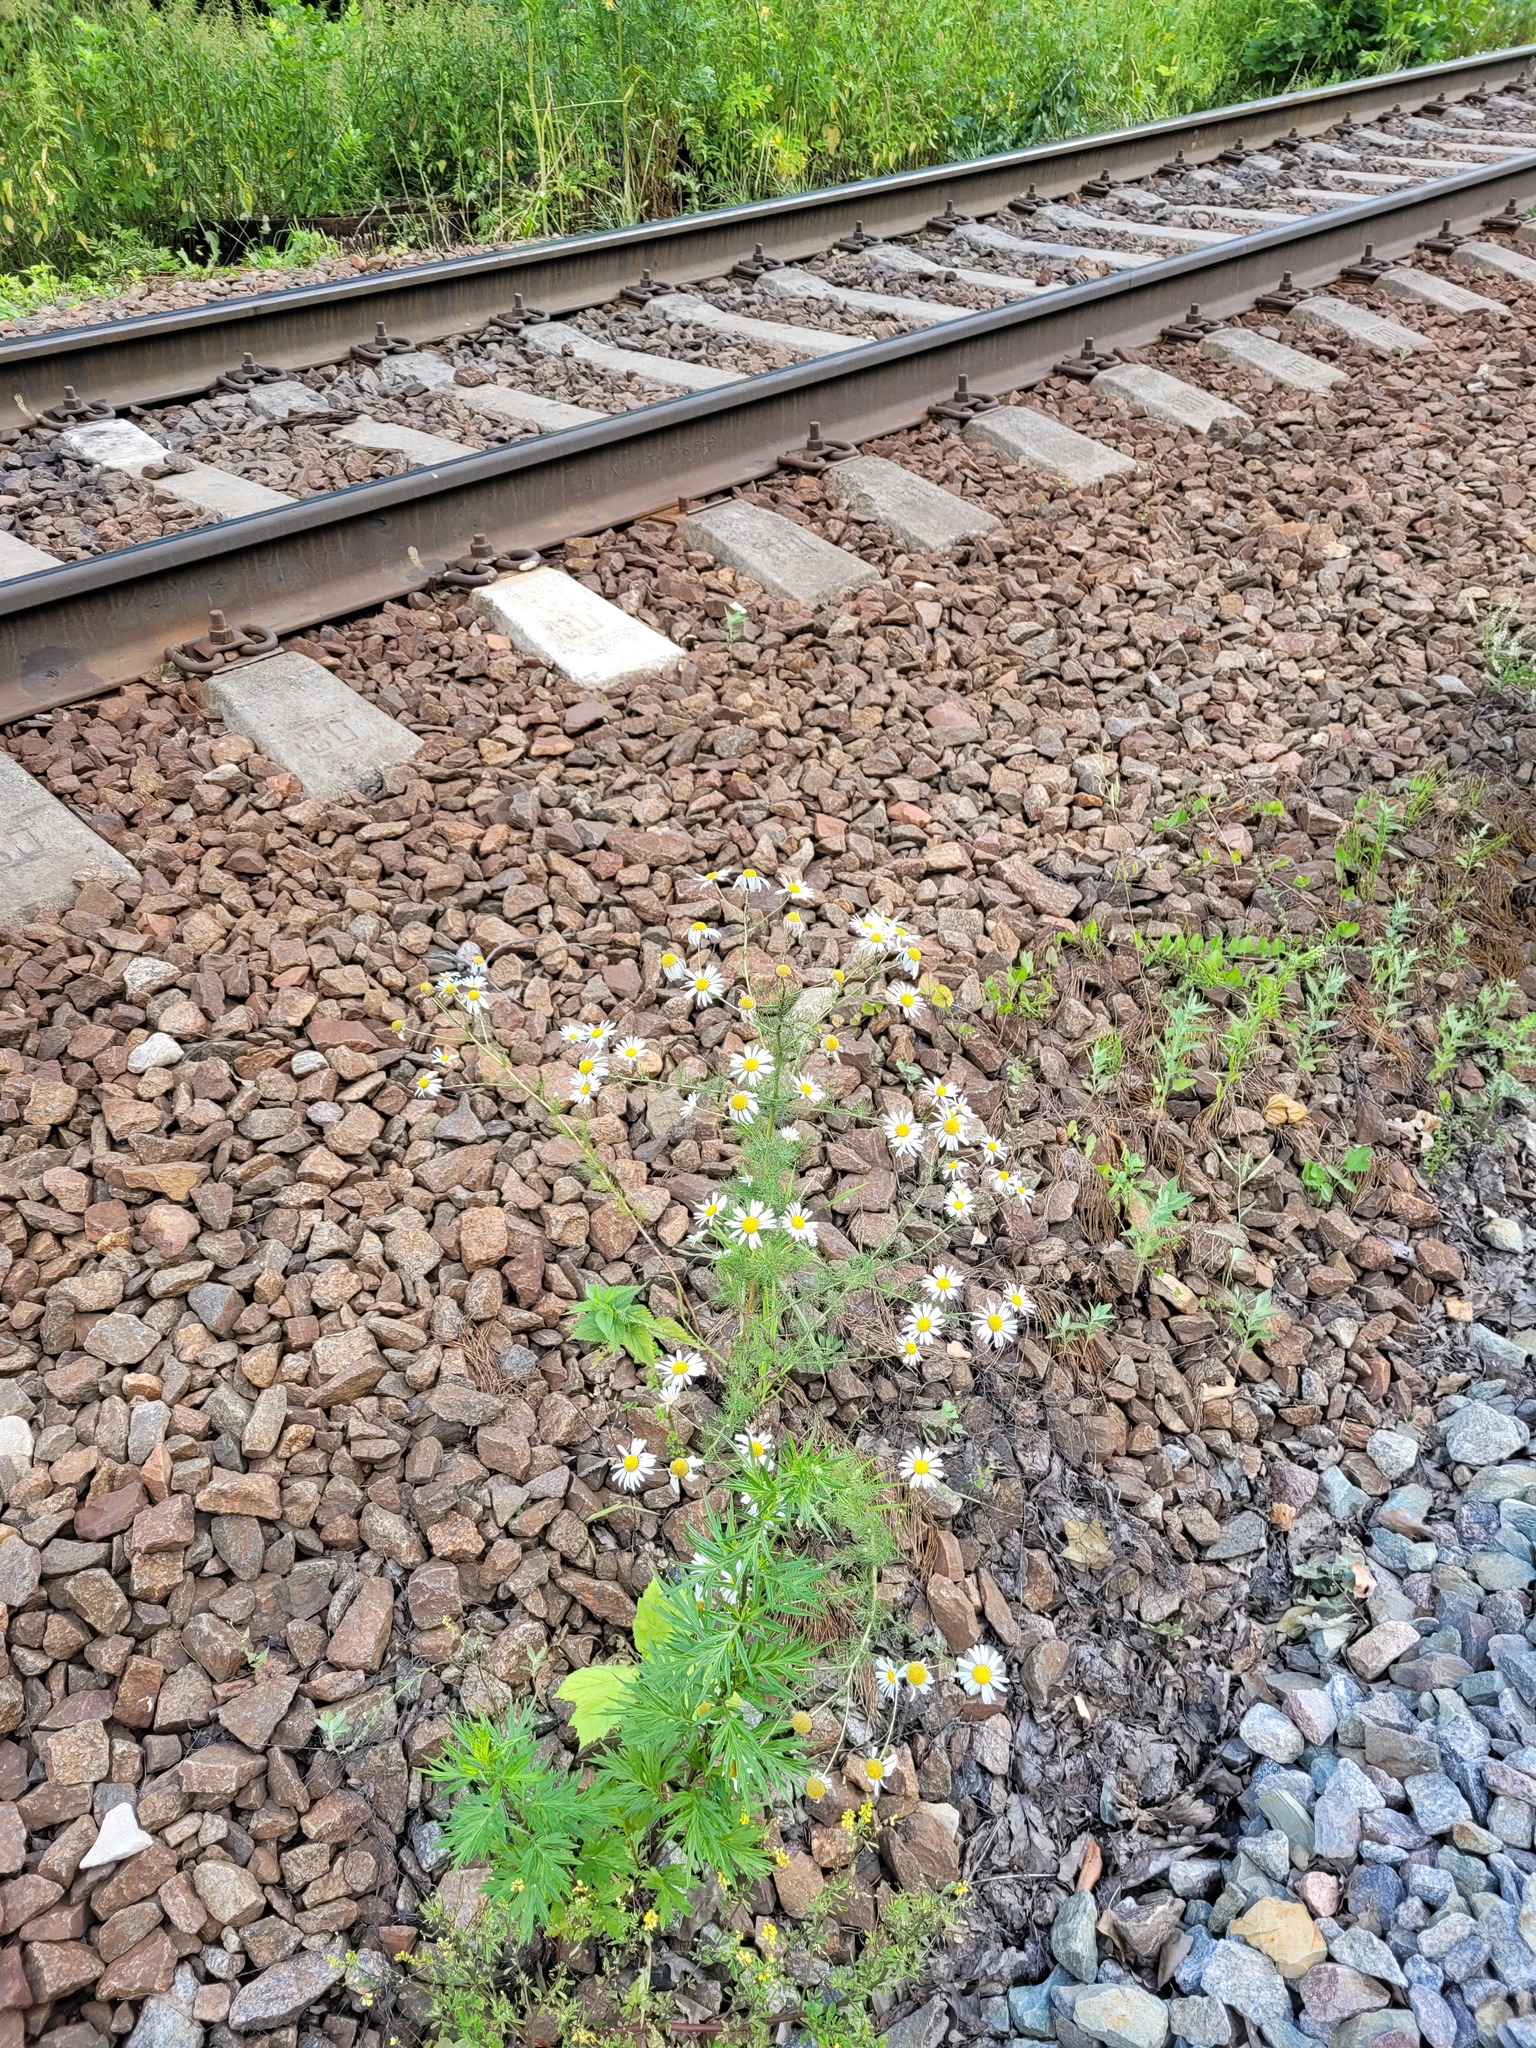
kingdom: Plantae
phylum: Tracheophyta
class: Magnoliopsida
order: Asterales
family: Asteraceae
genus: Tripleurospermum
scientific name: Tripleurospermum inodorum
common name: Scentless mayweed
